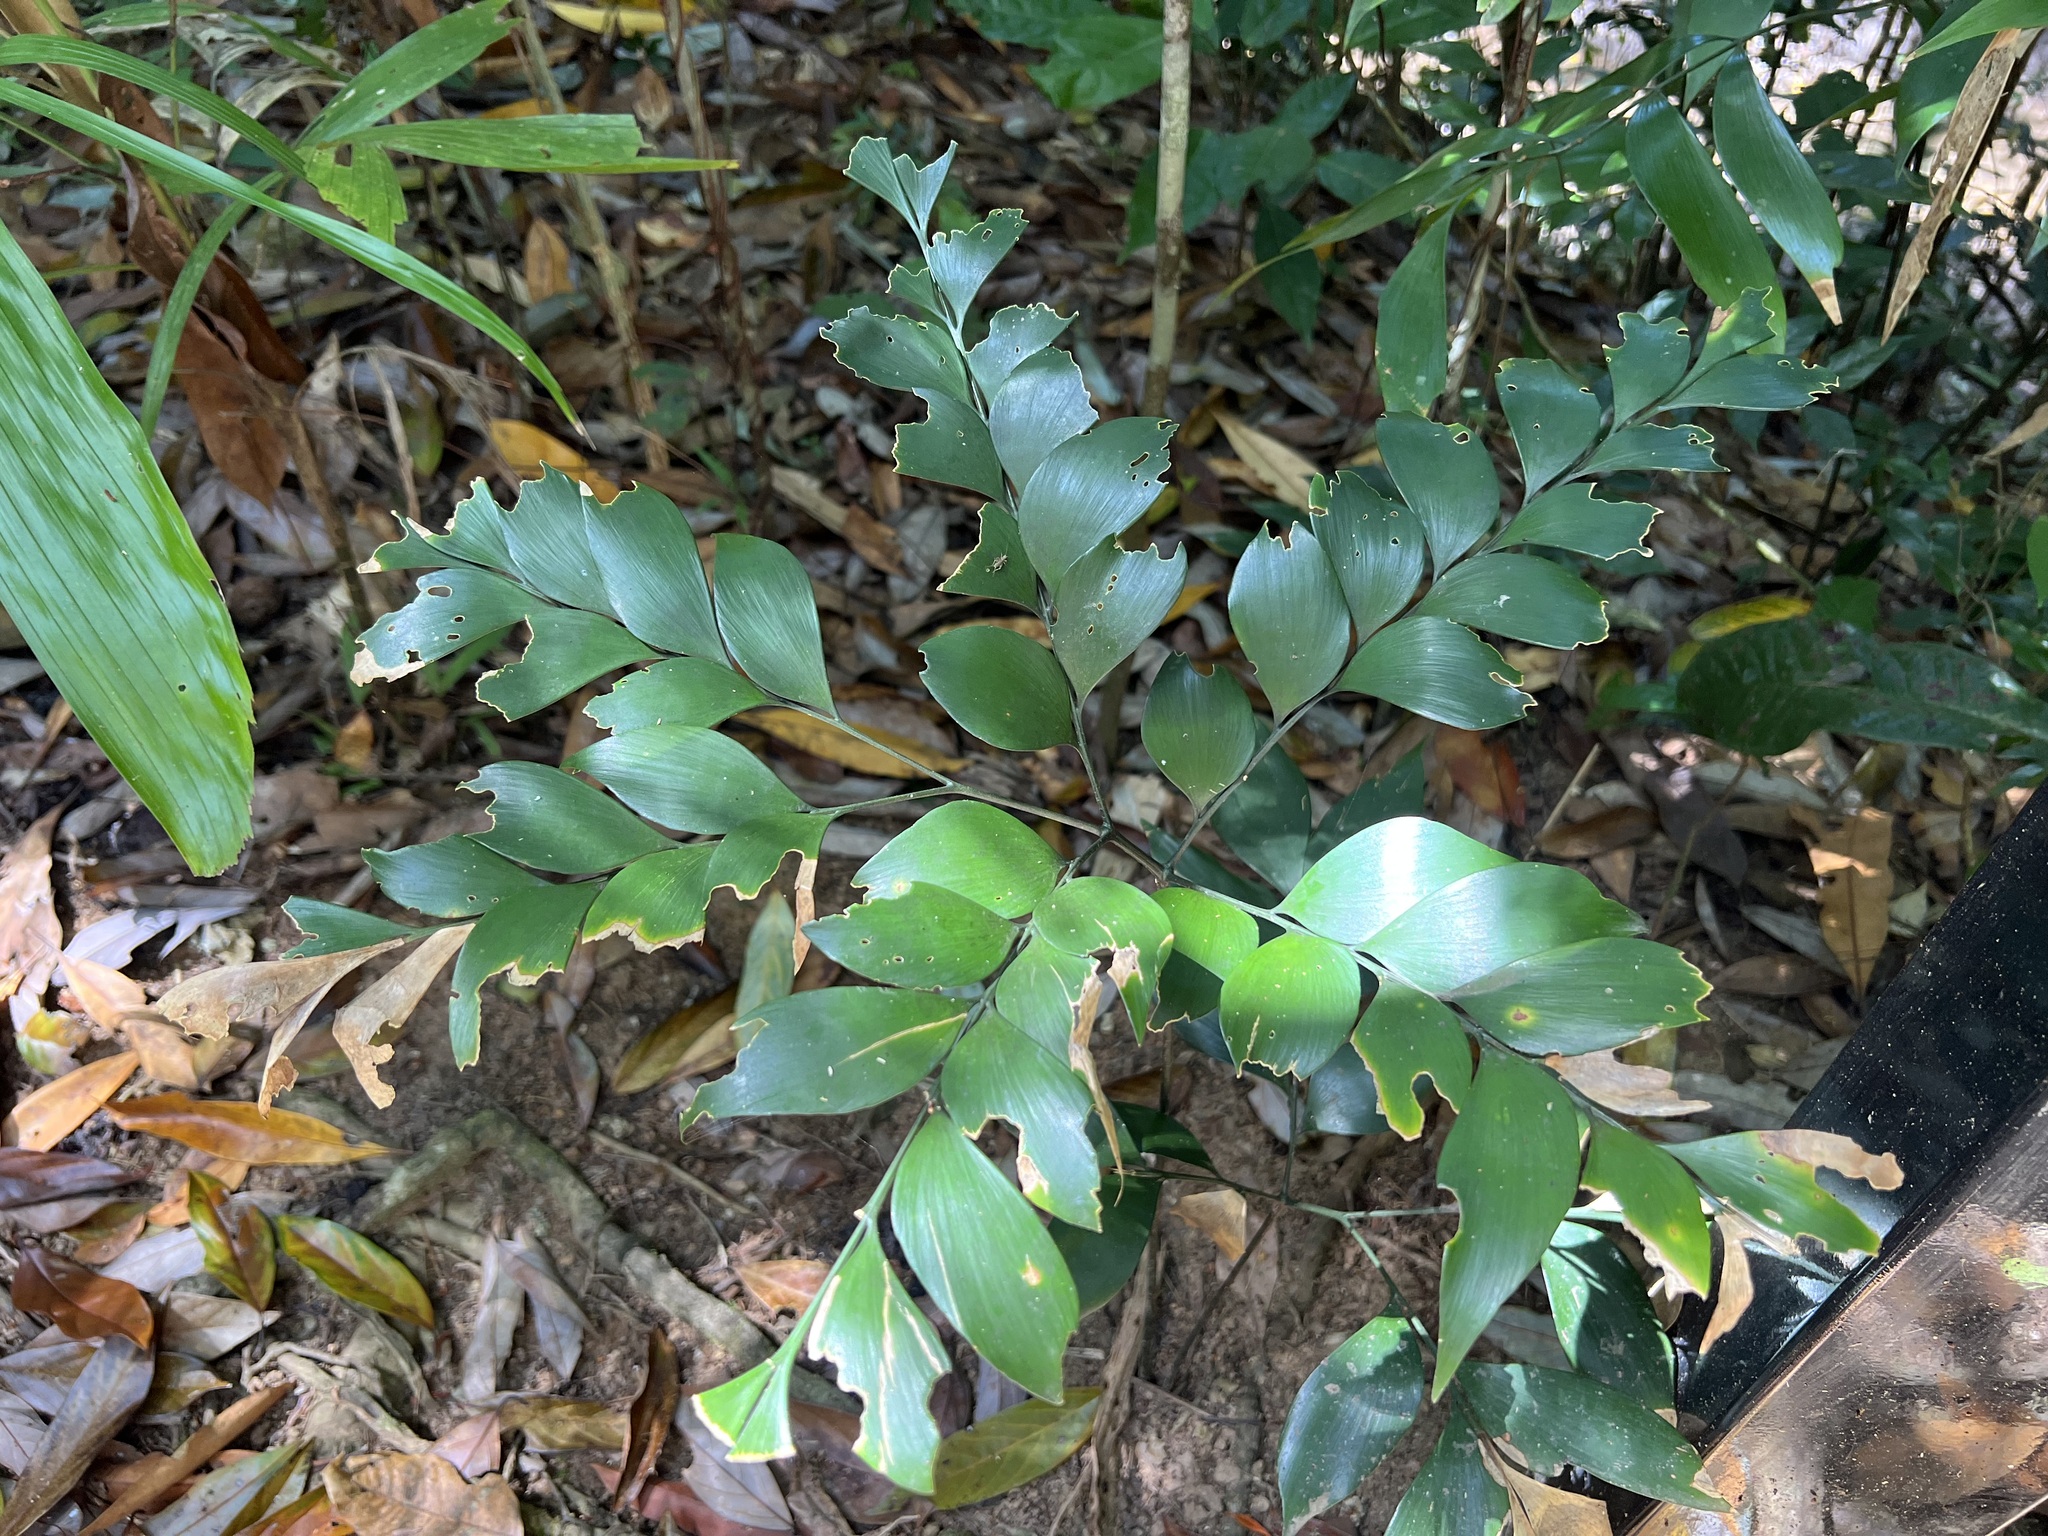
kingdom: Plantae
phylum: Tracheophyta
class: Cycadopsida
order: Cycadales
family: Zamiaceae
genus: Bowenia
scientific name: Bowenia spectabilis
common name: Zamia-fern
